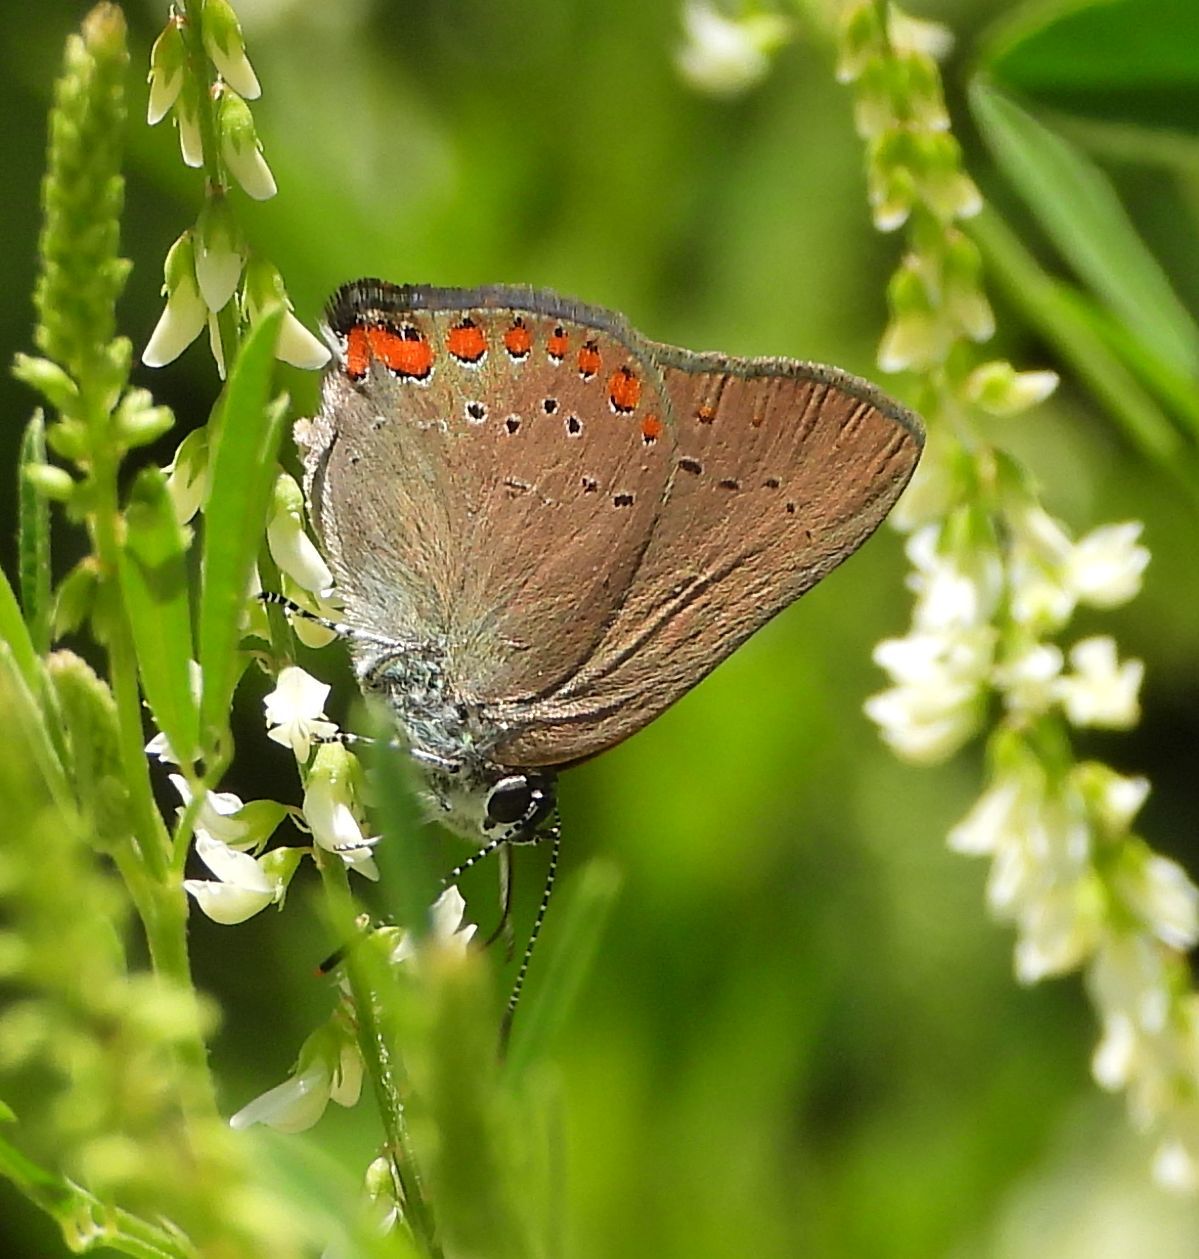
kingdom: Animalia
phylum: Arthropoda
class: Insecta
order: Lepidoptera
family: Lycaenidae
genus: Harkenclenus
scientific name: Harkenclenus titus
